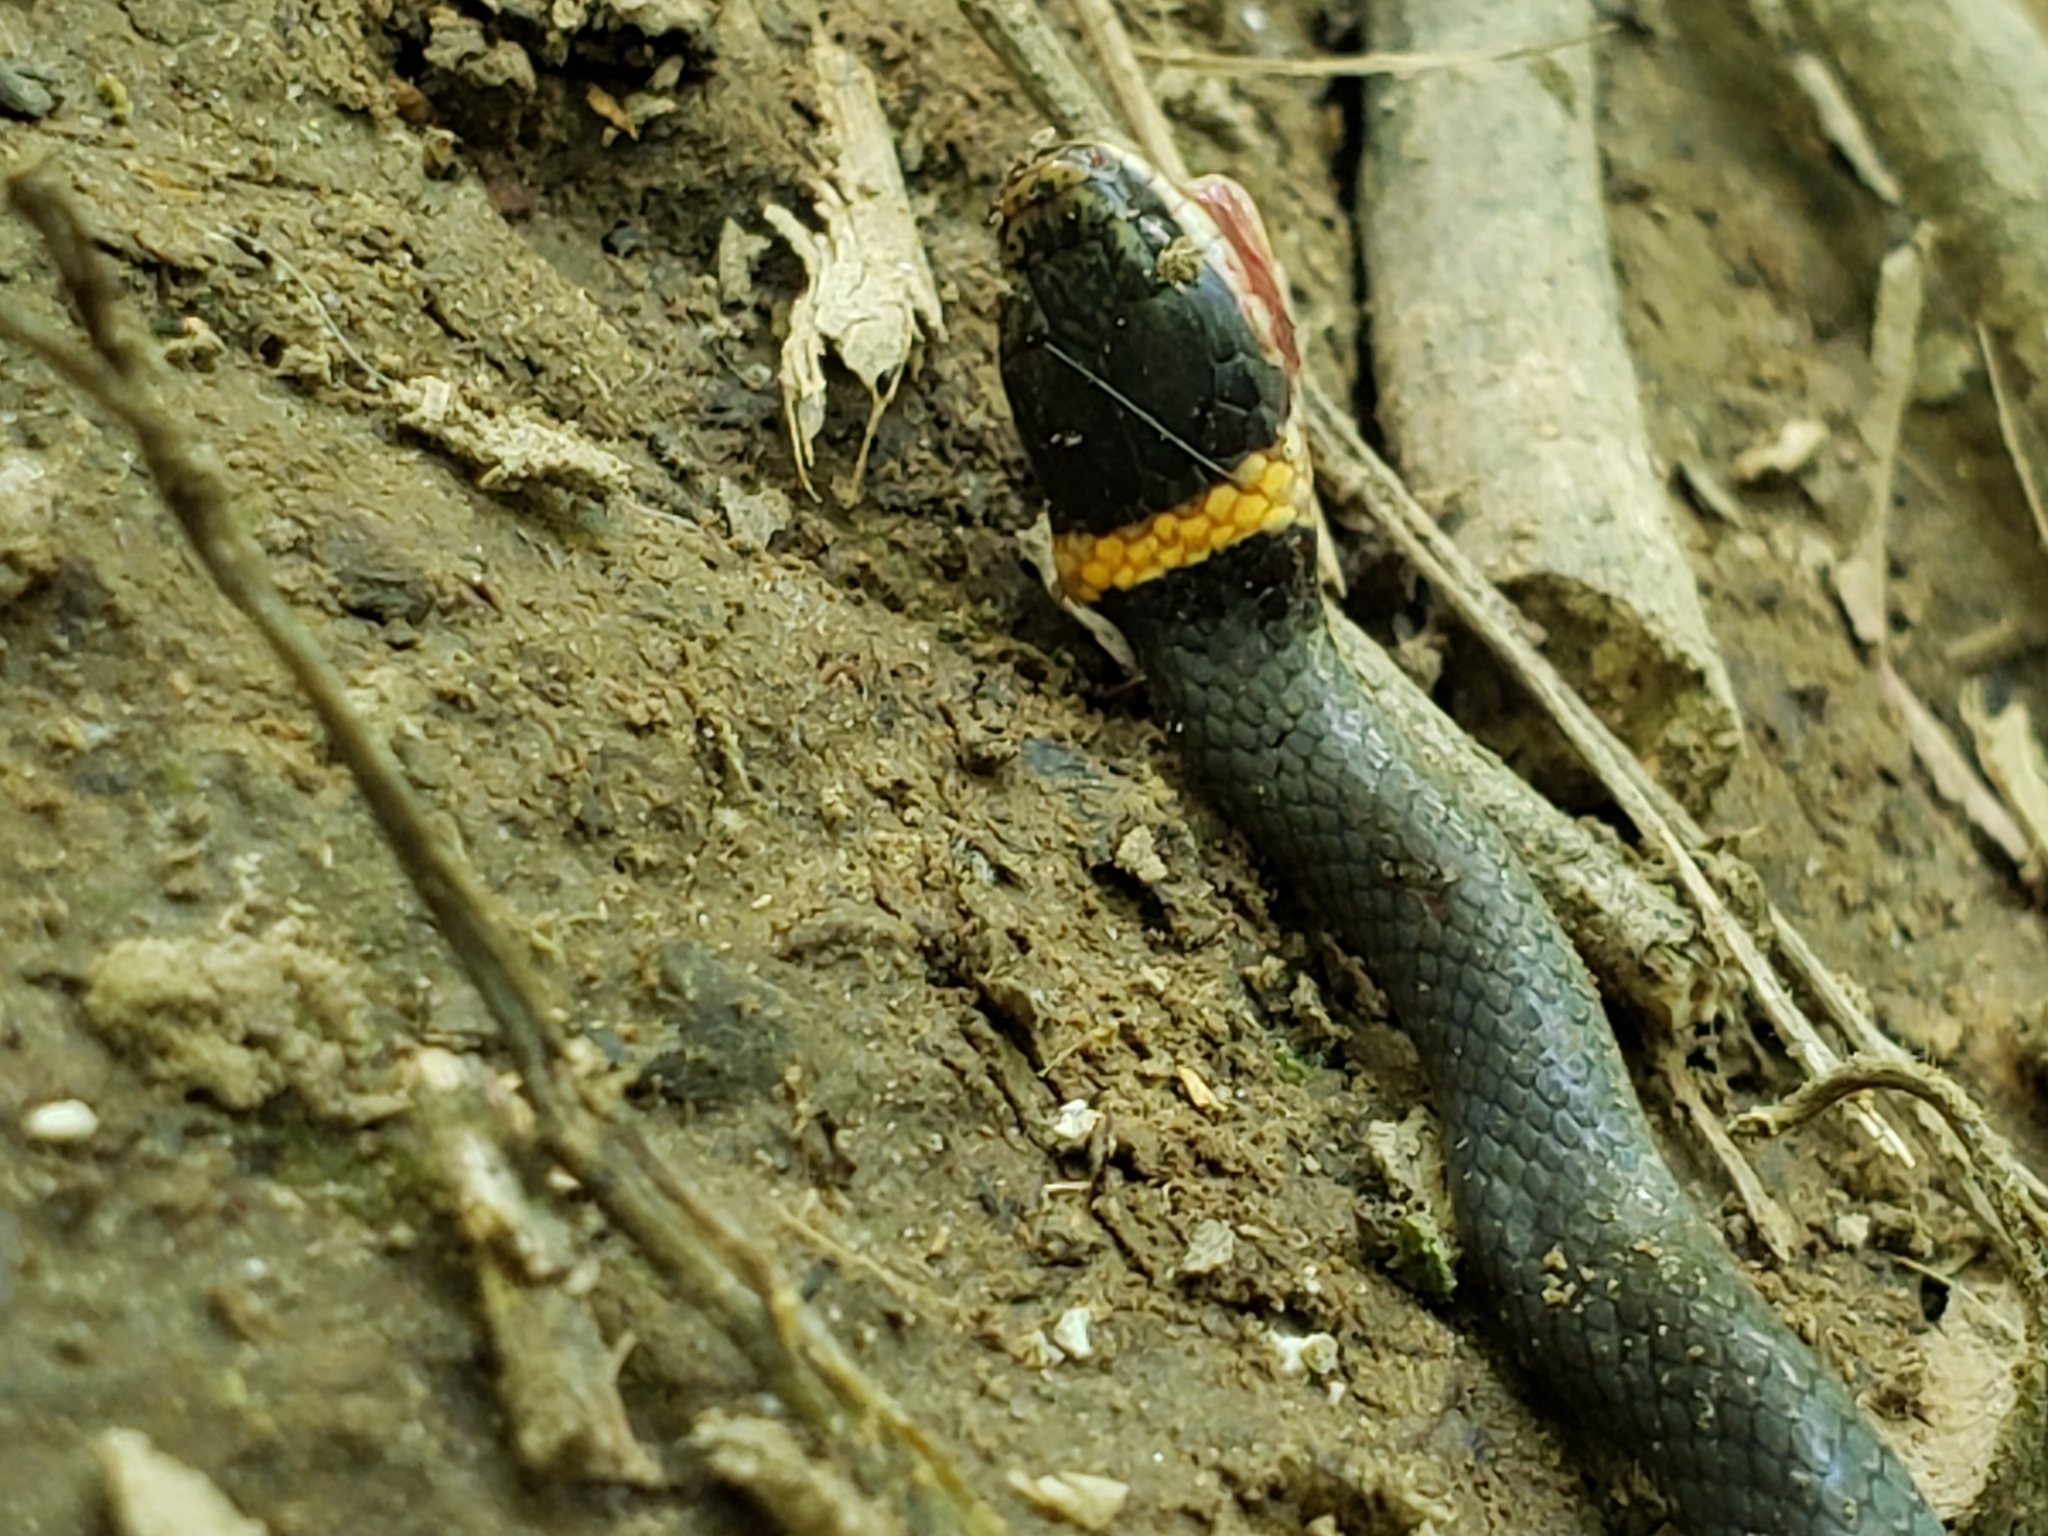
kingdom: Animalia
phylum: Chordata
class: Squamata
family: Colubridae
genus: Diadophis
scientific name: Diadophis punctatus
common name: Ringneck snake
